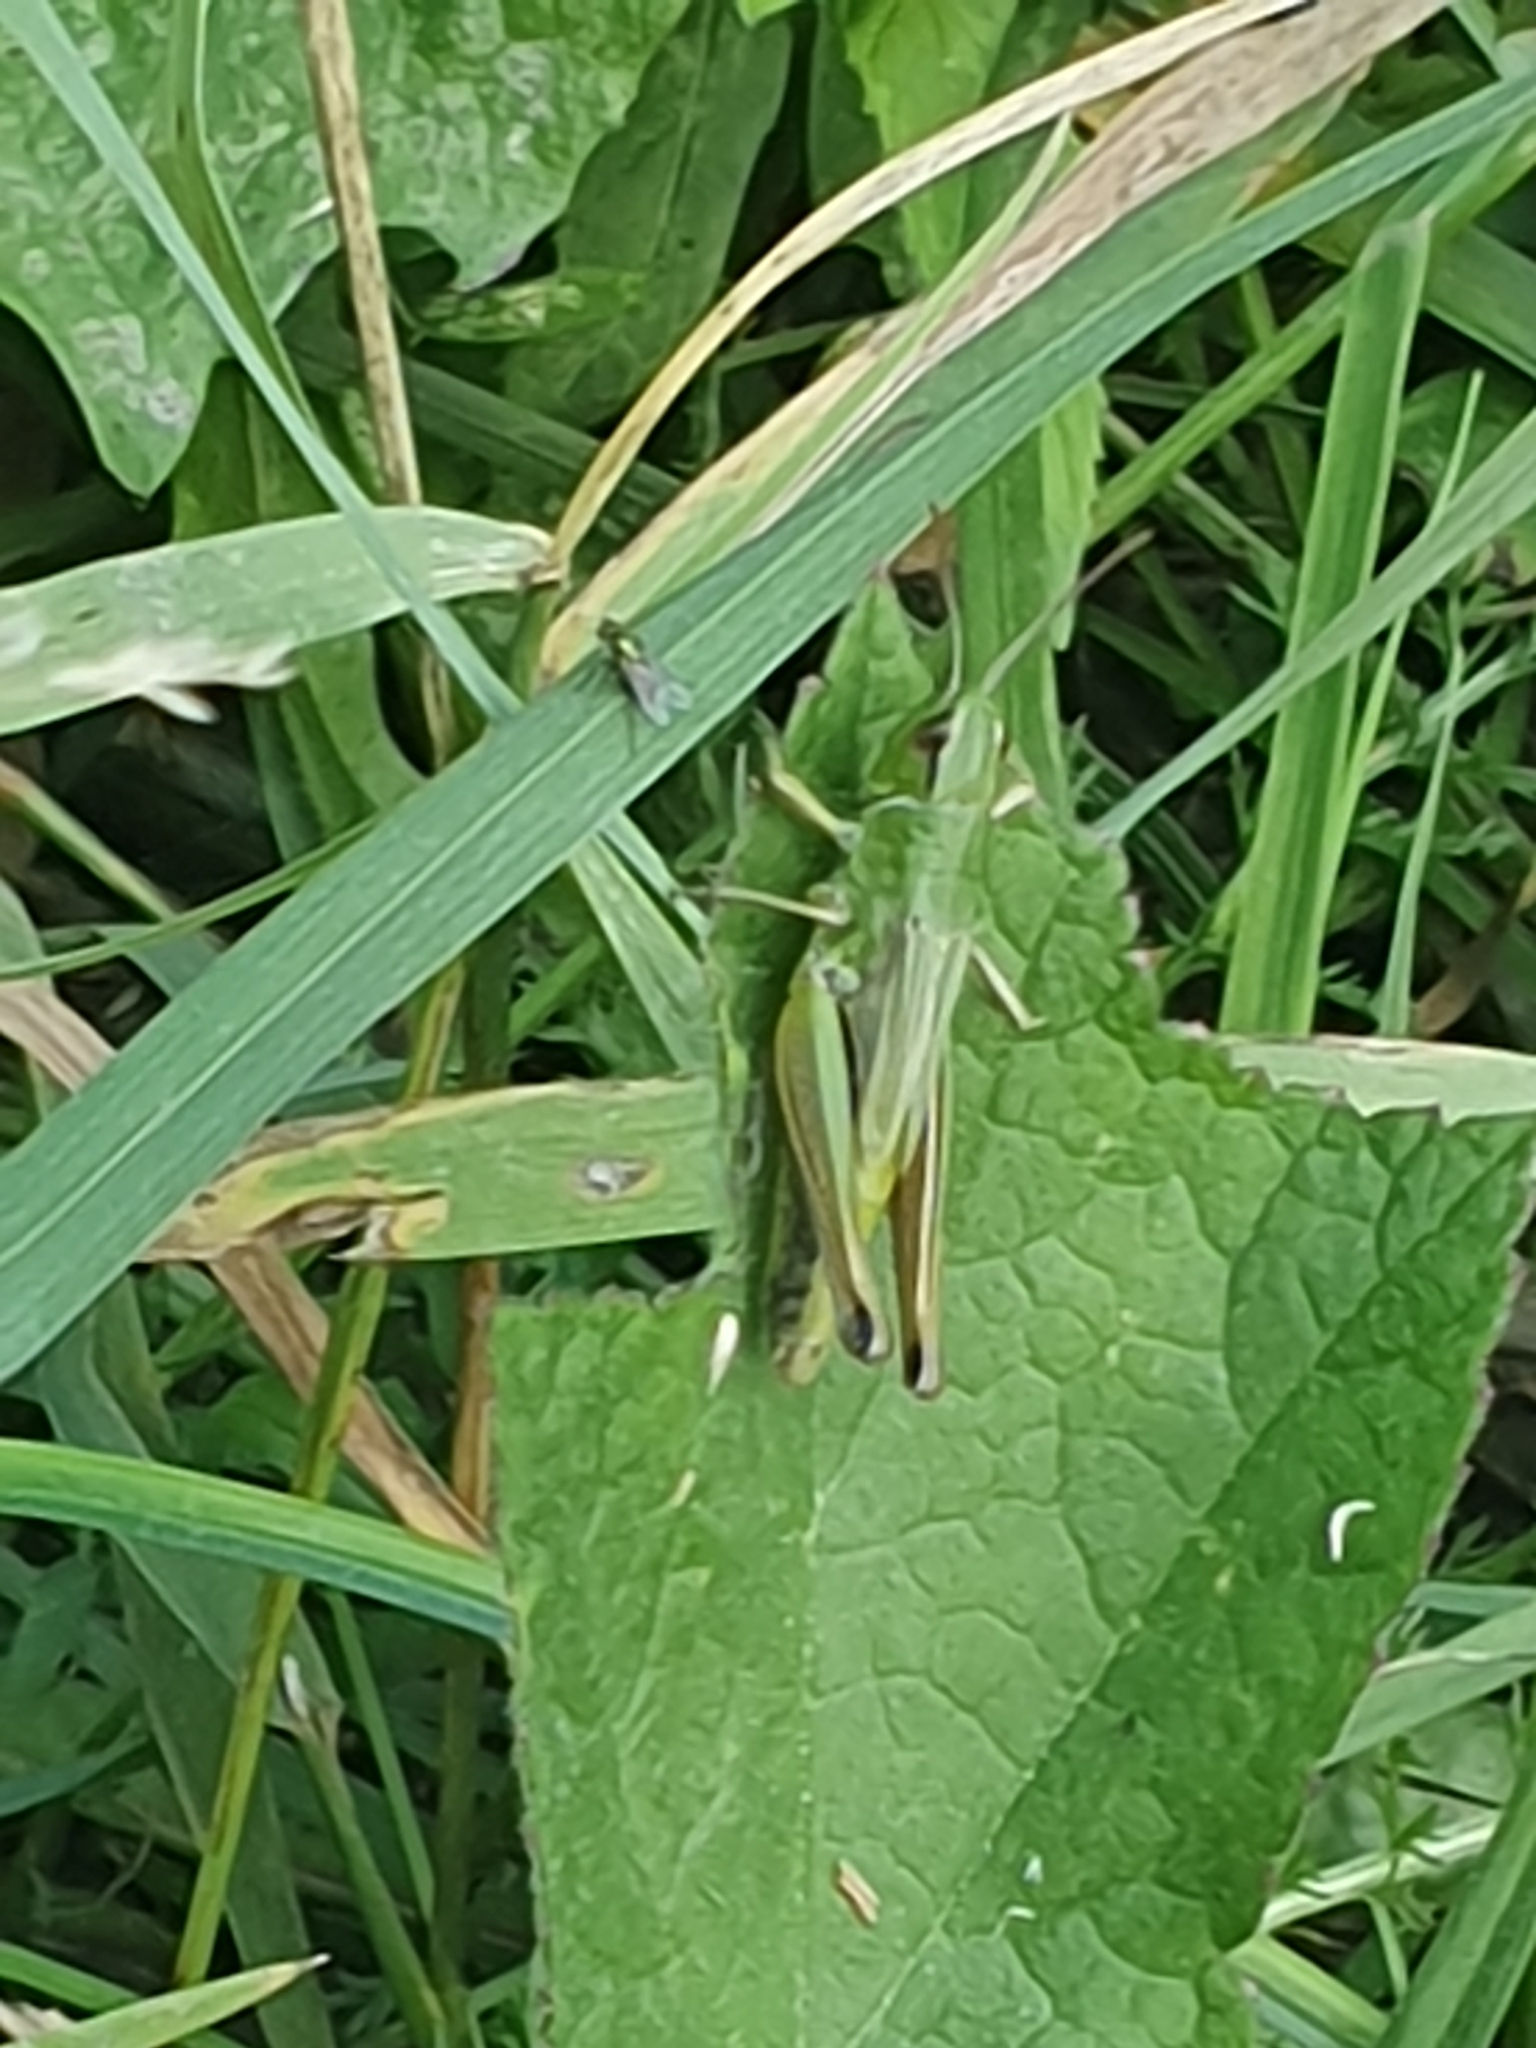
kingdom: Animalia
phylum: Arthropoda
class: Insecta
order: Orthoptera
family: Acrididae
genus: Pseudochorthippus
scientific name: Pseudochorthippus parallelus
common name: Meadow grasshopper
